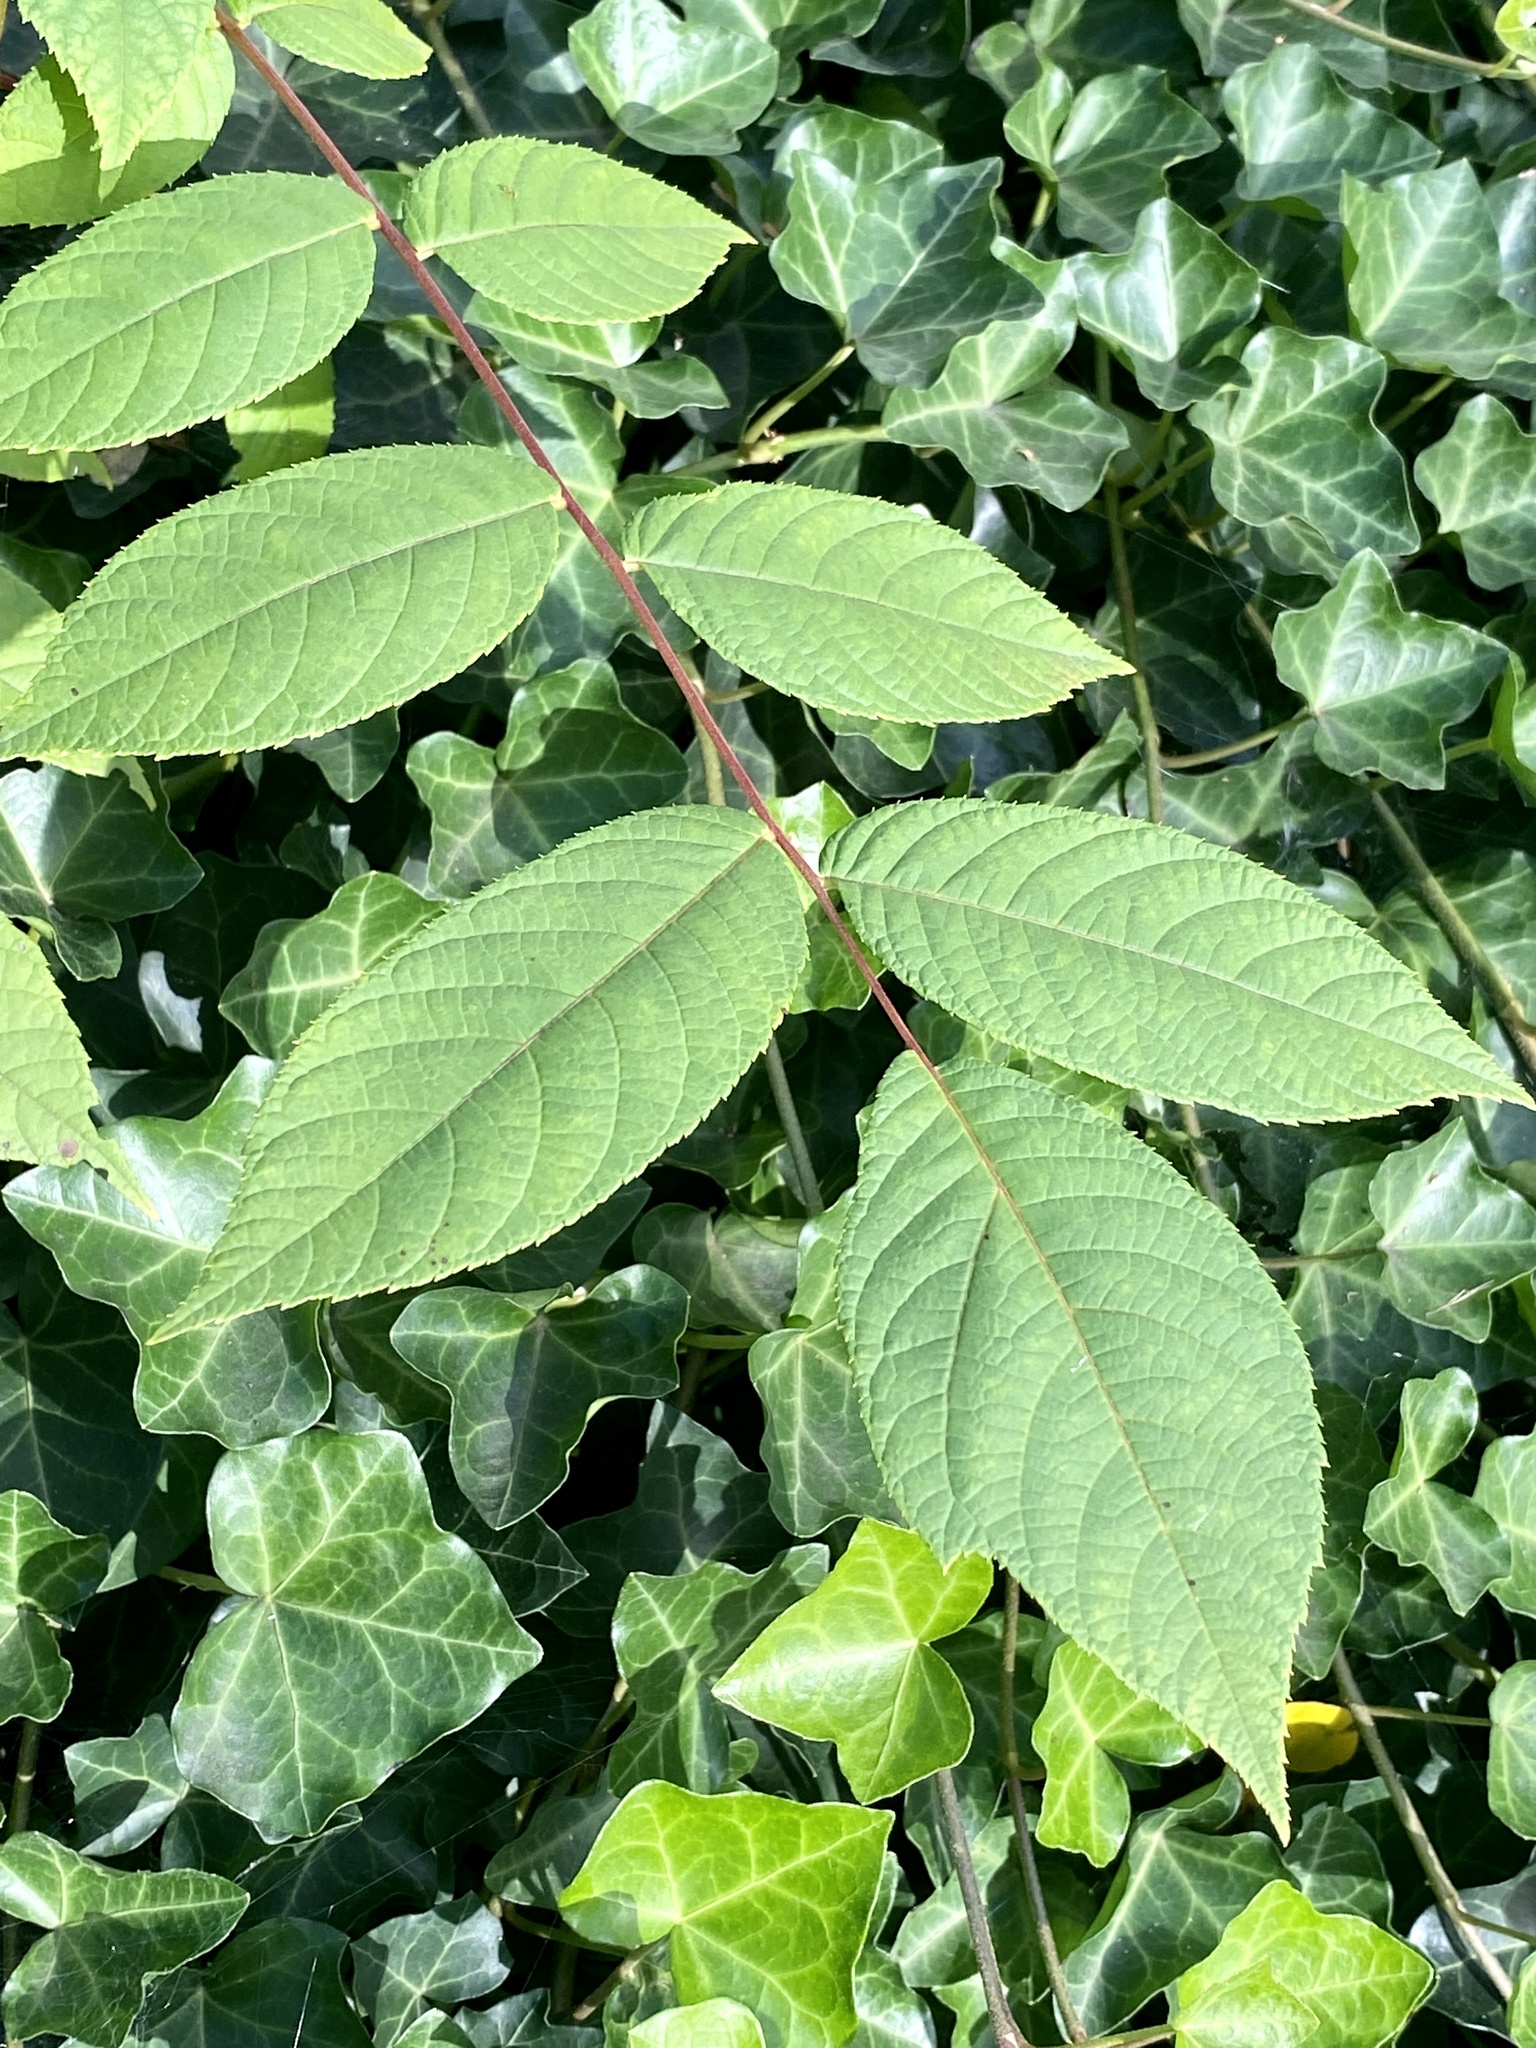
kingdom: Plantae
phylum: Tracheophyta
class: Magnoliopsida
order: Fagales
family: Juglandaceae
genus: Juglans
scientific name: Juglans nigra
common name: Black walnut
